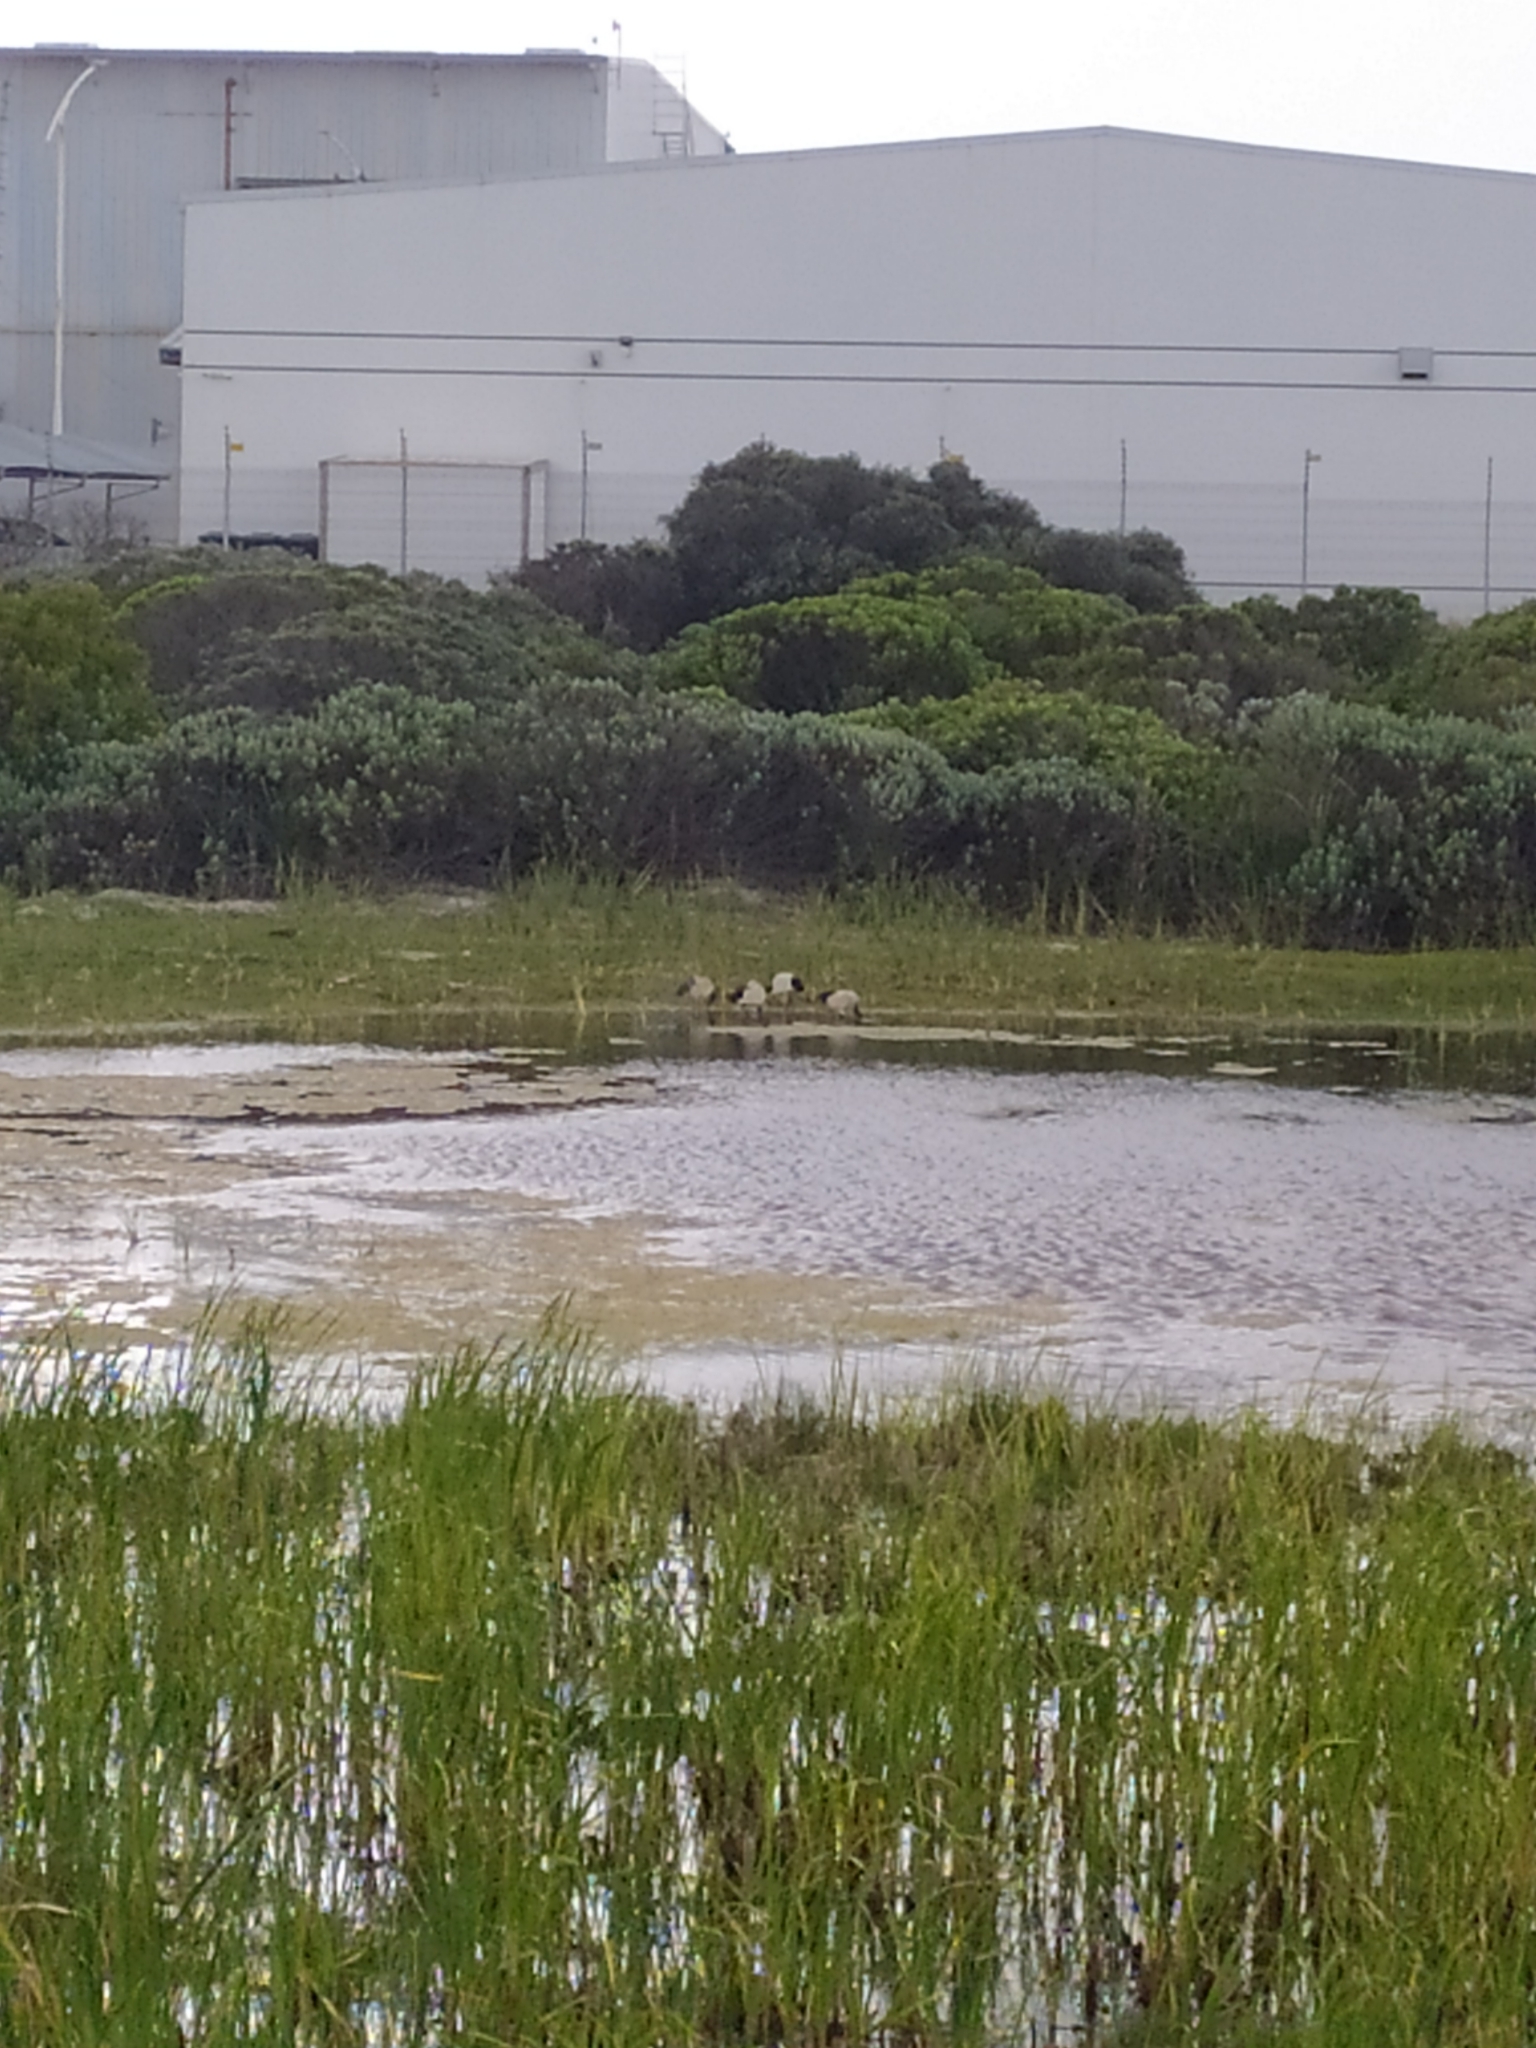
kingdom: Animalia
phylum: Chordata
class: Aves
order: Pelecaniformes
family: Threskiornithidae
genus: Threskiornis
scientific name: Threskiornis aethiopicus
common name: Sacred ibis
